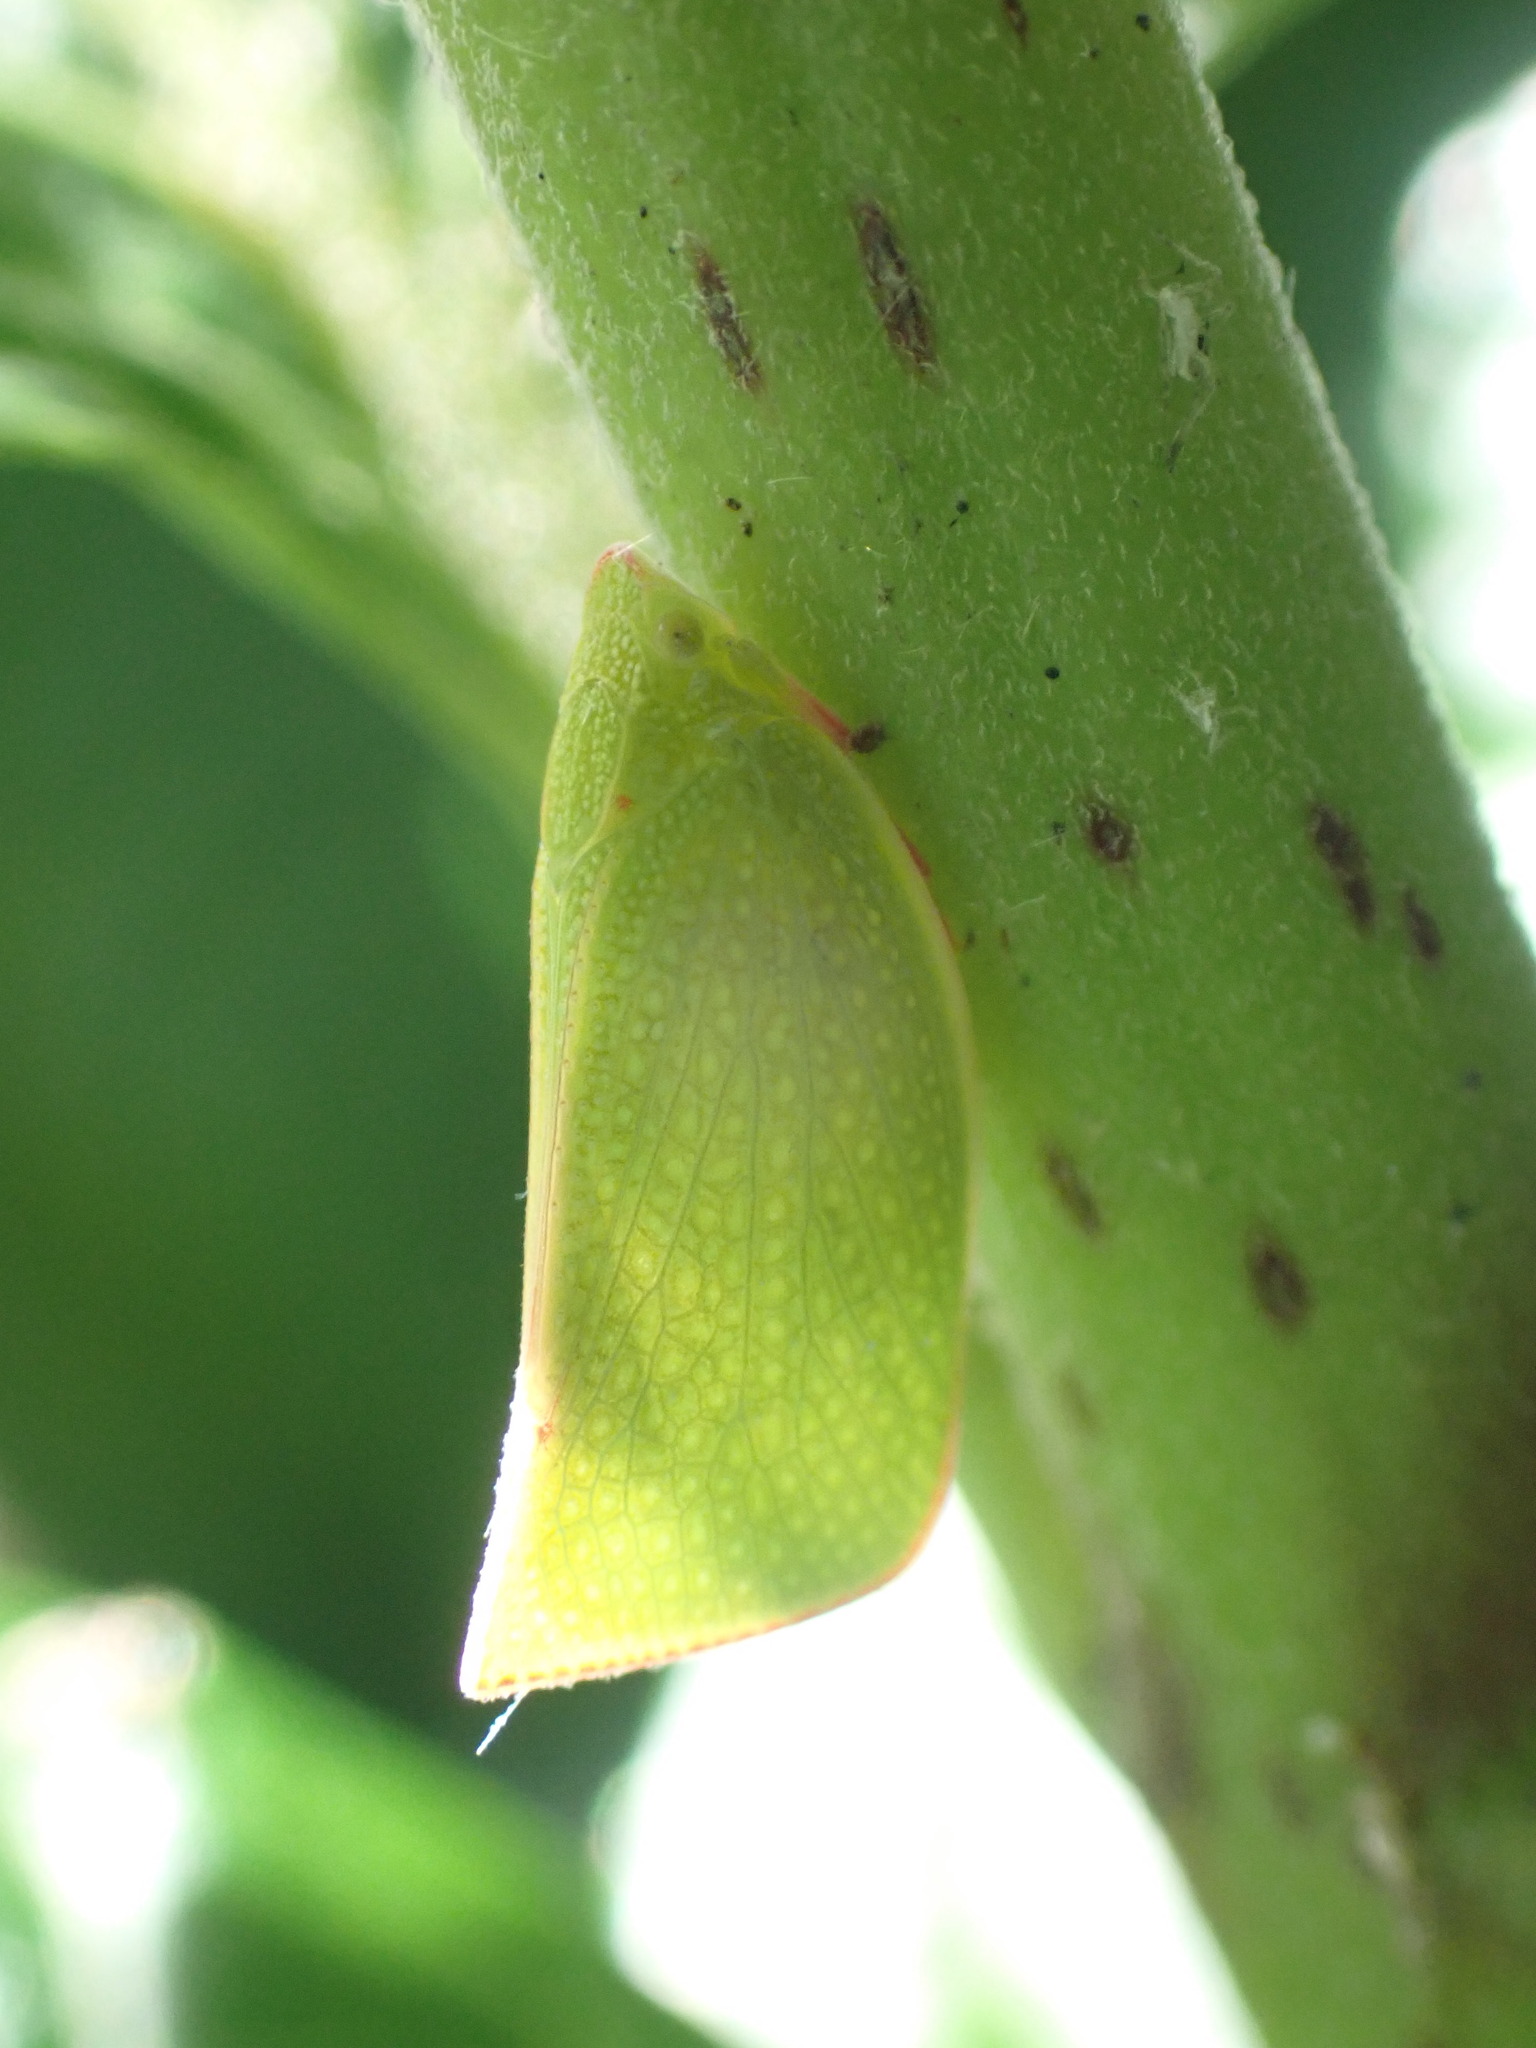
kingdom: Animalia
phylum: Arthropoda
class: Insecta
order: Hemiptera
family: Flatidae
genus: Siphanta
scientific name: Siphanta acuta
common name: Torpedo bug
